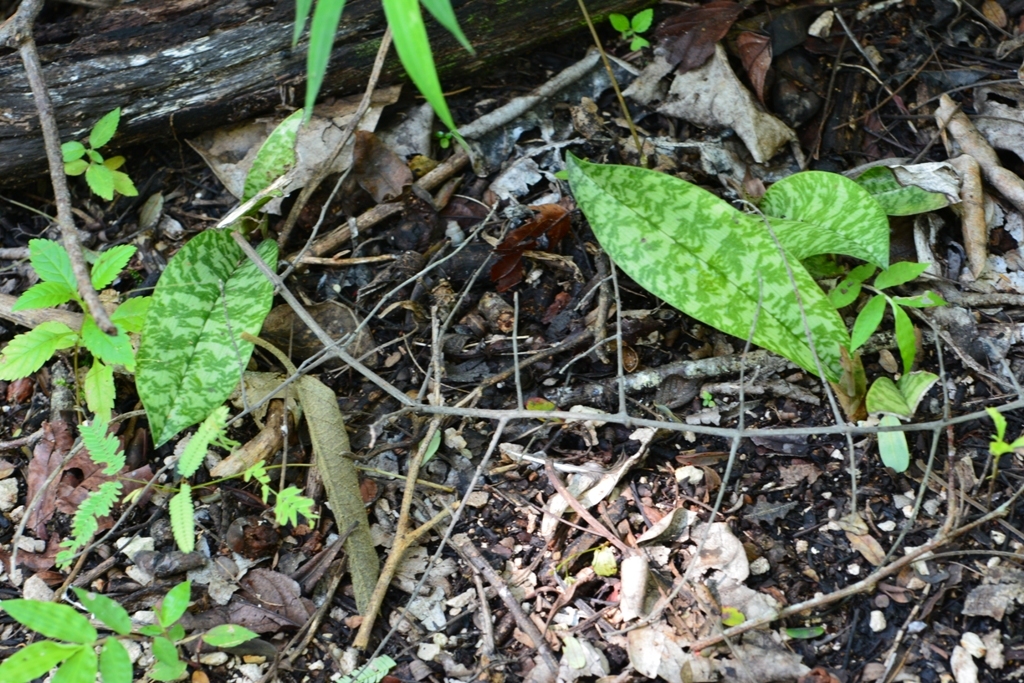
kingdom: Plantae
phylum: Tracheophyta
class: Liliopsida
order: Asparagales
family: Orchidaceae
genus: Eulophia
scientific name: Eulophia maculata
